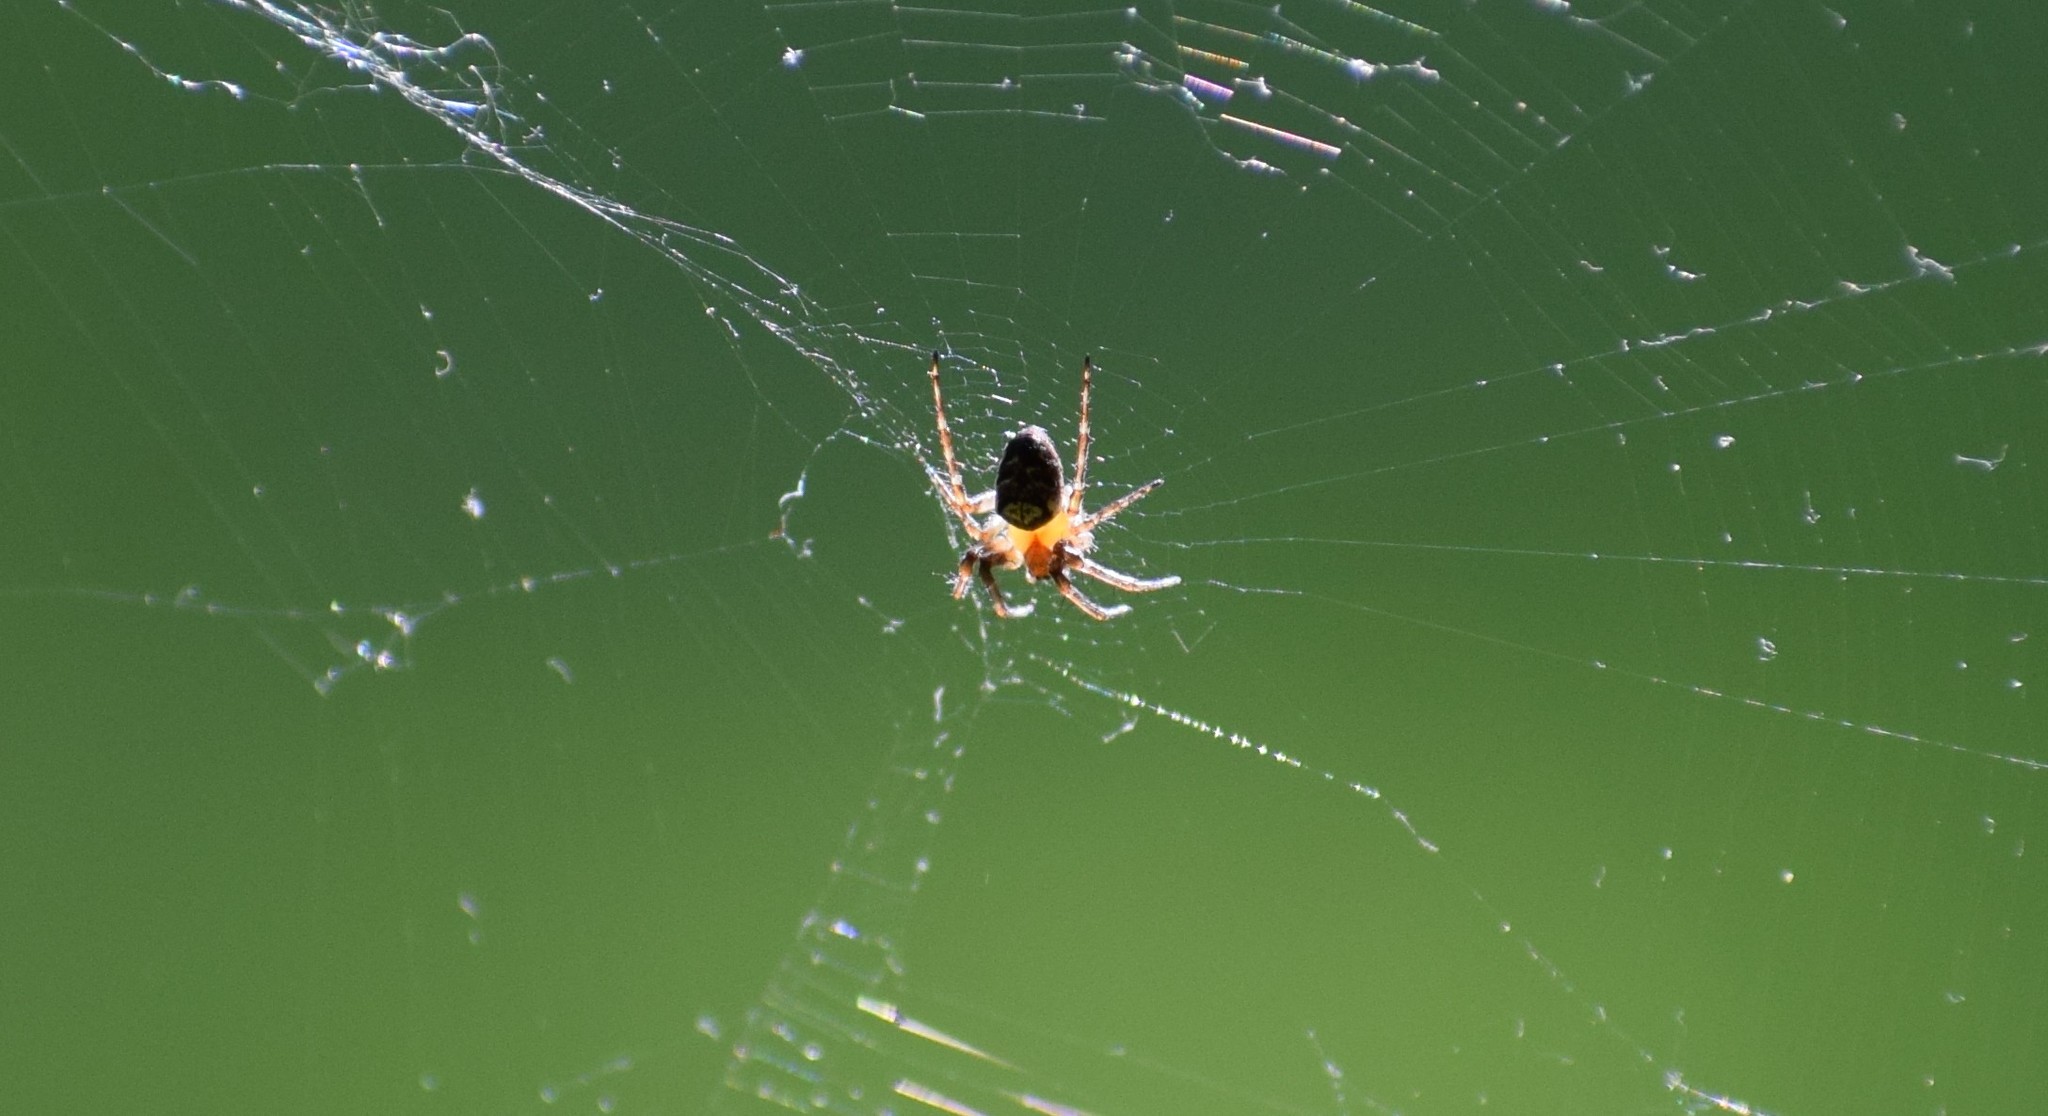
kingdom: Animalia
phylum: Arthropoda
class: Arachnida
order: Araneae
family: Araneidae
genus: Zilla
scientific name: Zilla diodia
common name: Zilla diodia
